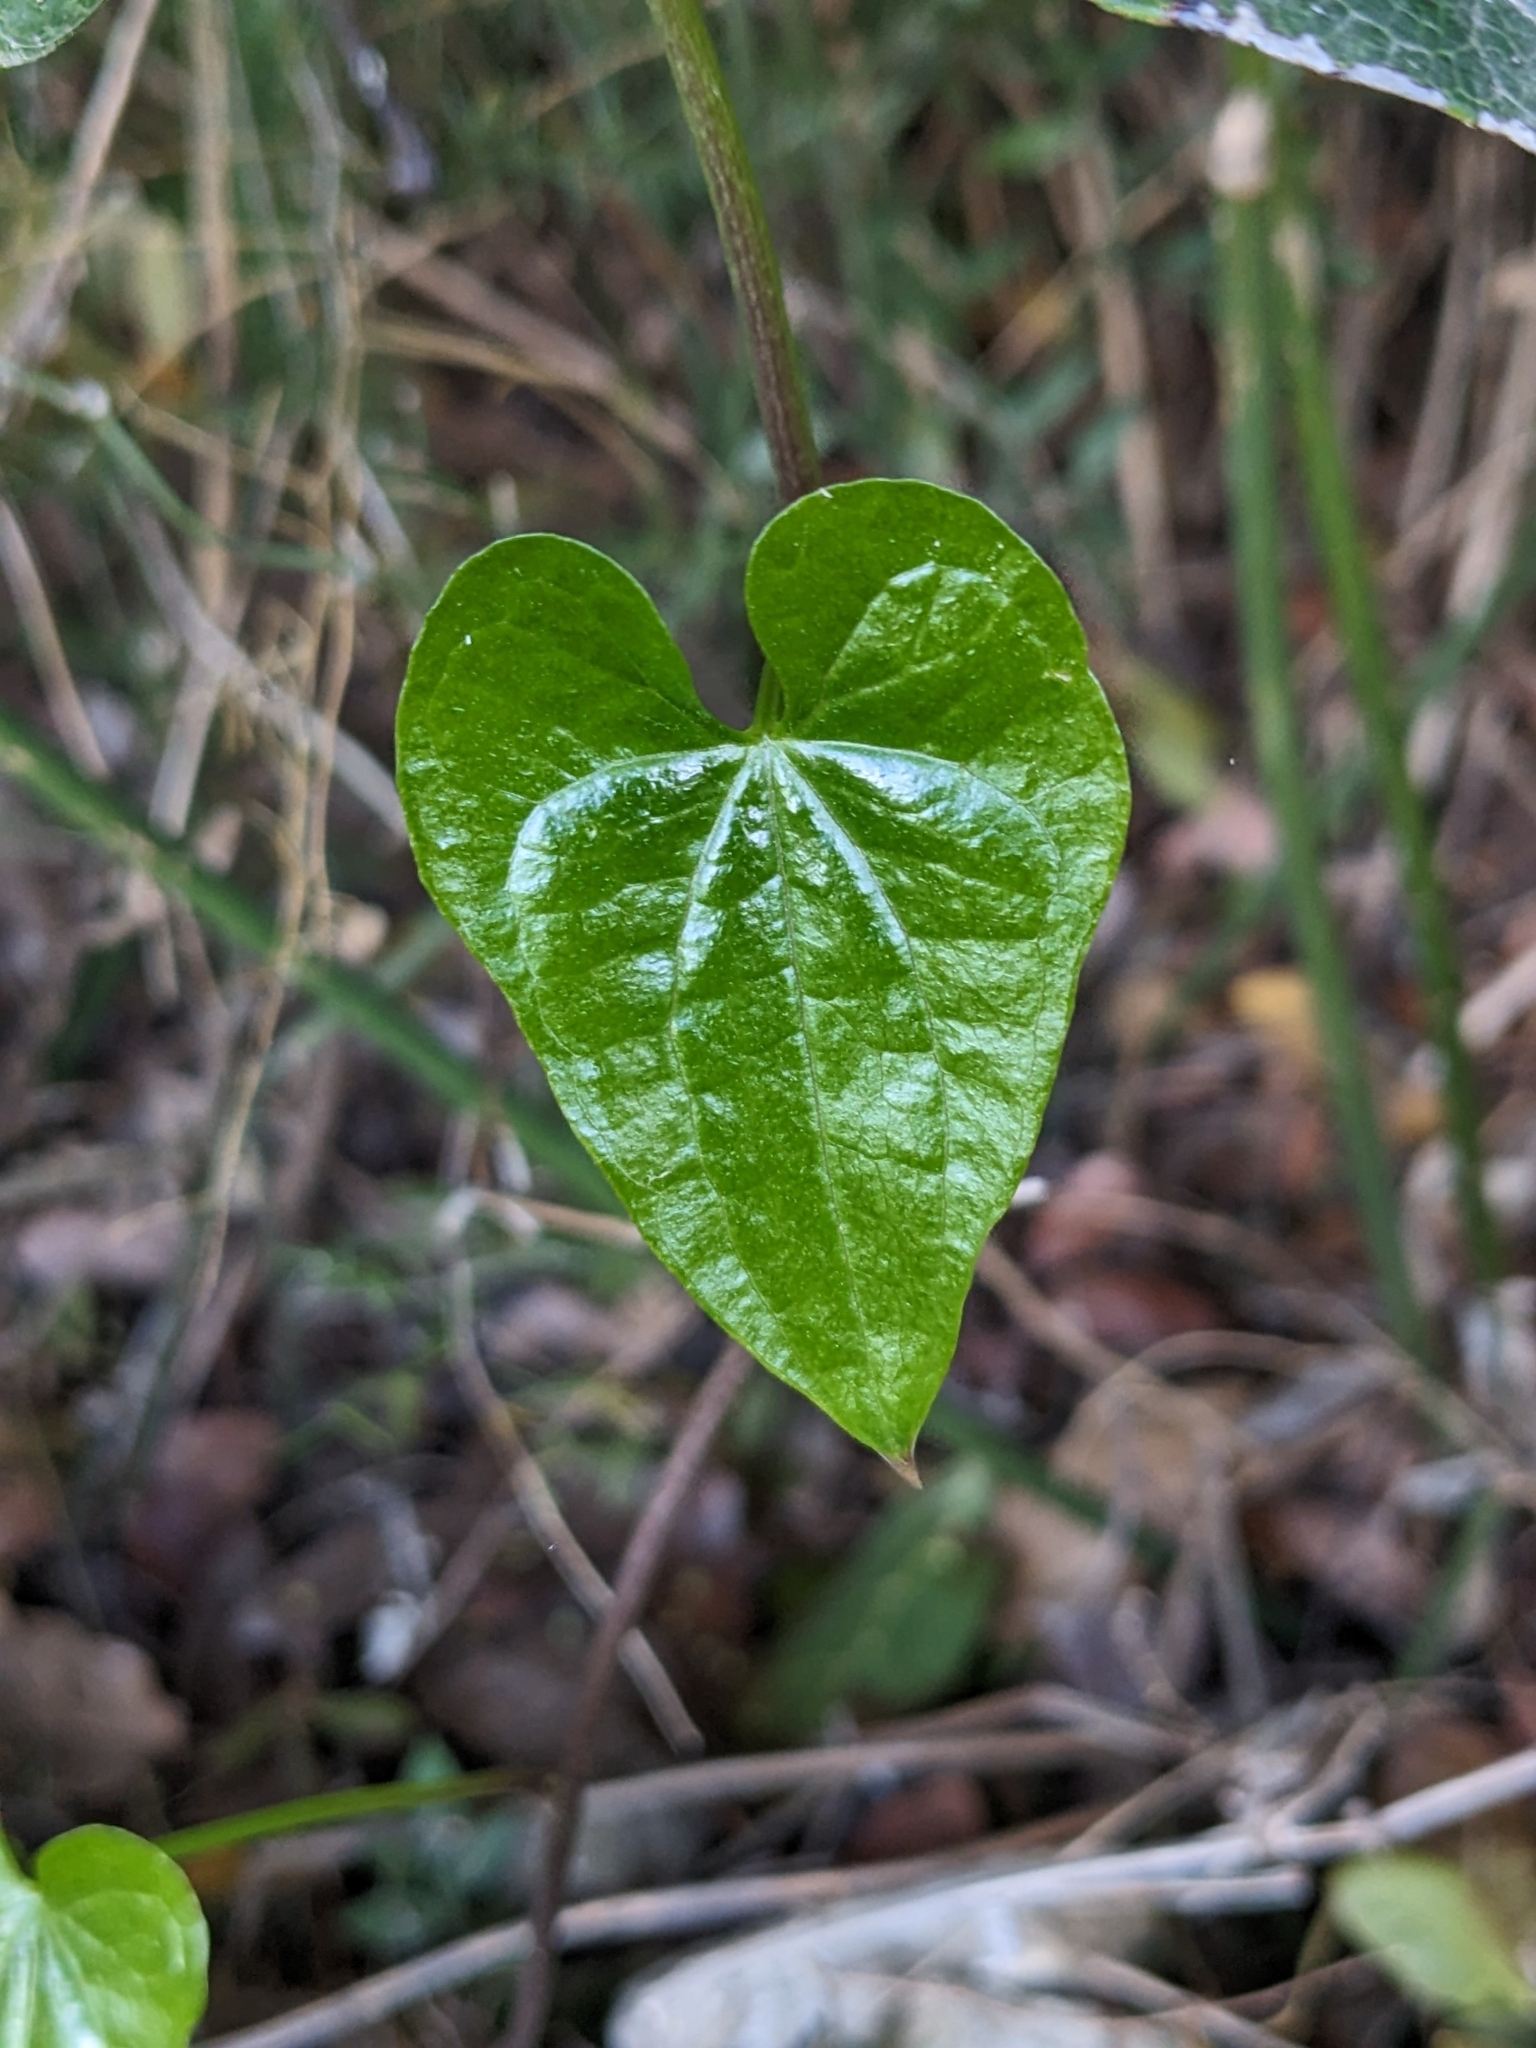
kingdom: Plantae
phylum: Tracheophyta
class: Liliopsida
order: Dioscoreales
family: Dioscoreaceae
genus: Dioscorea
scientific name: Dioscorea communis
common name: Black-bindweed
